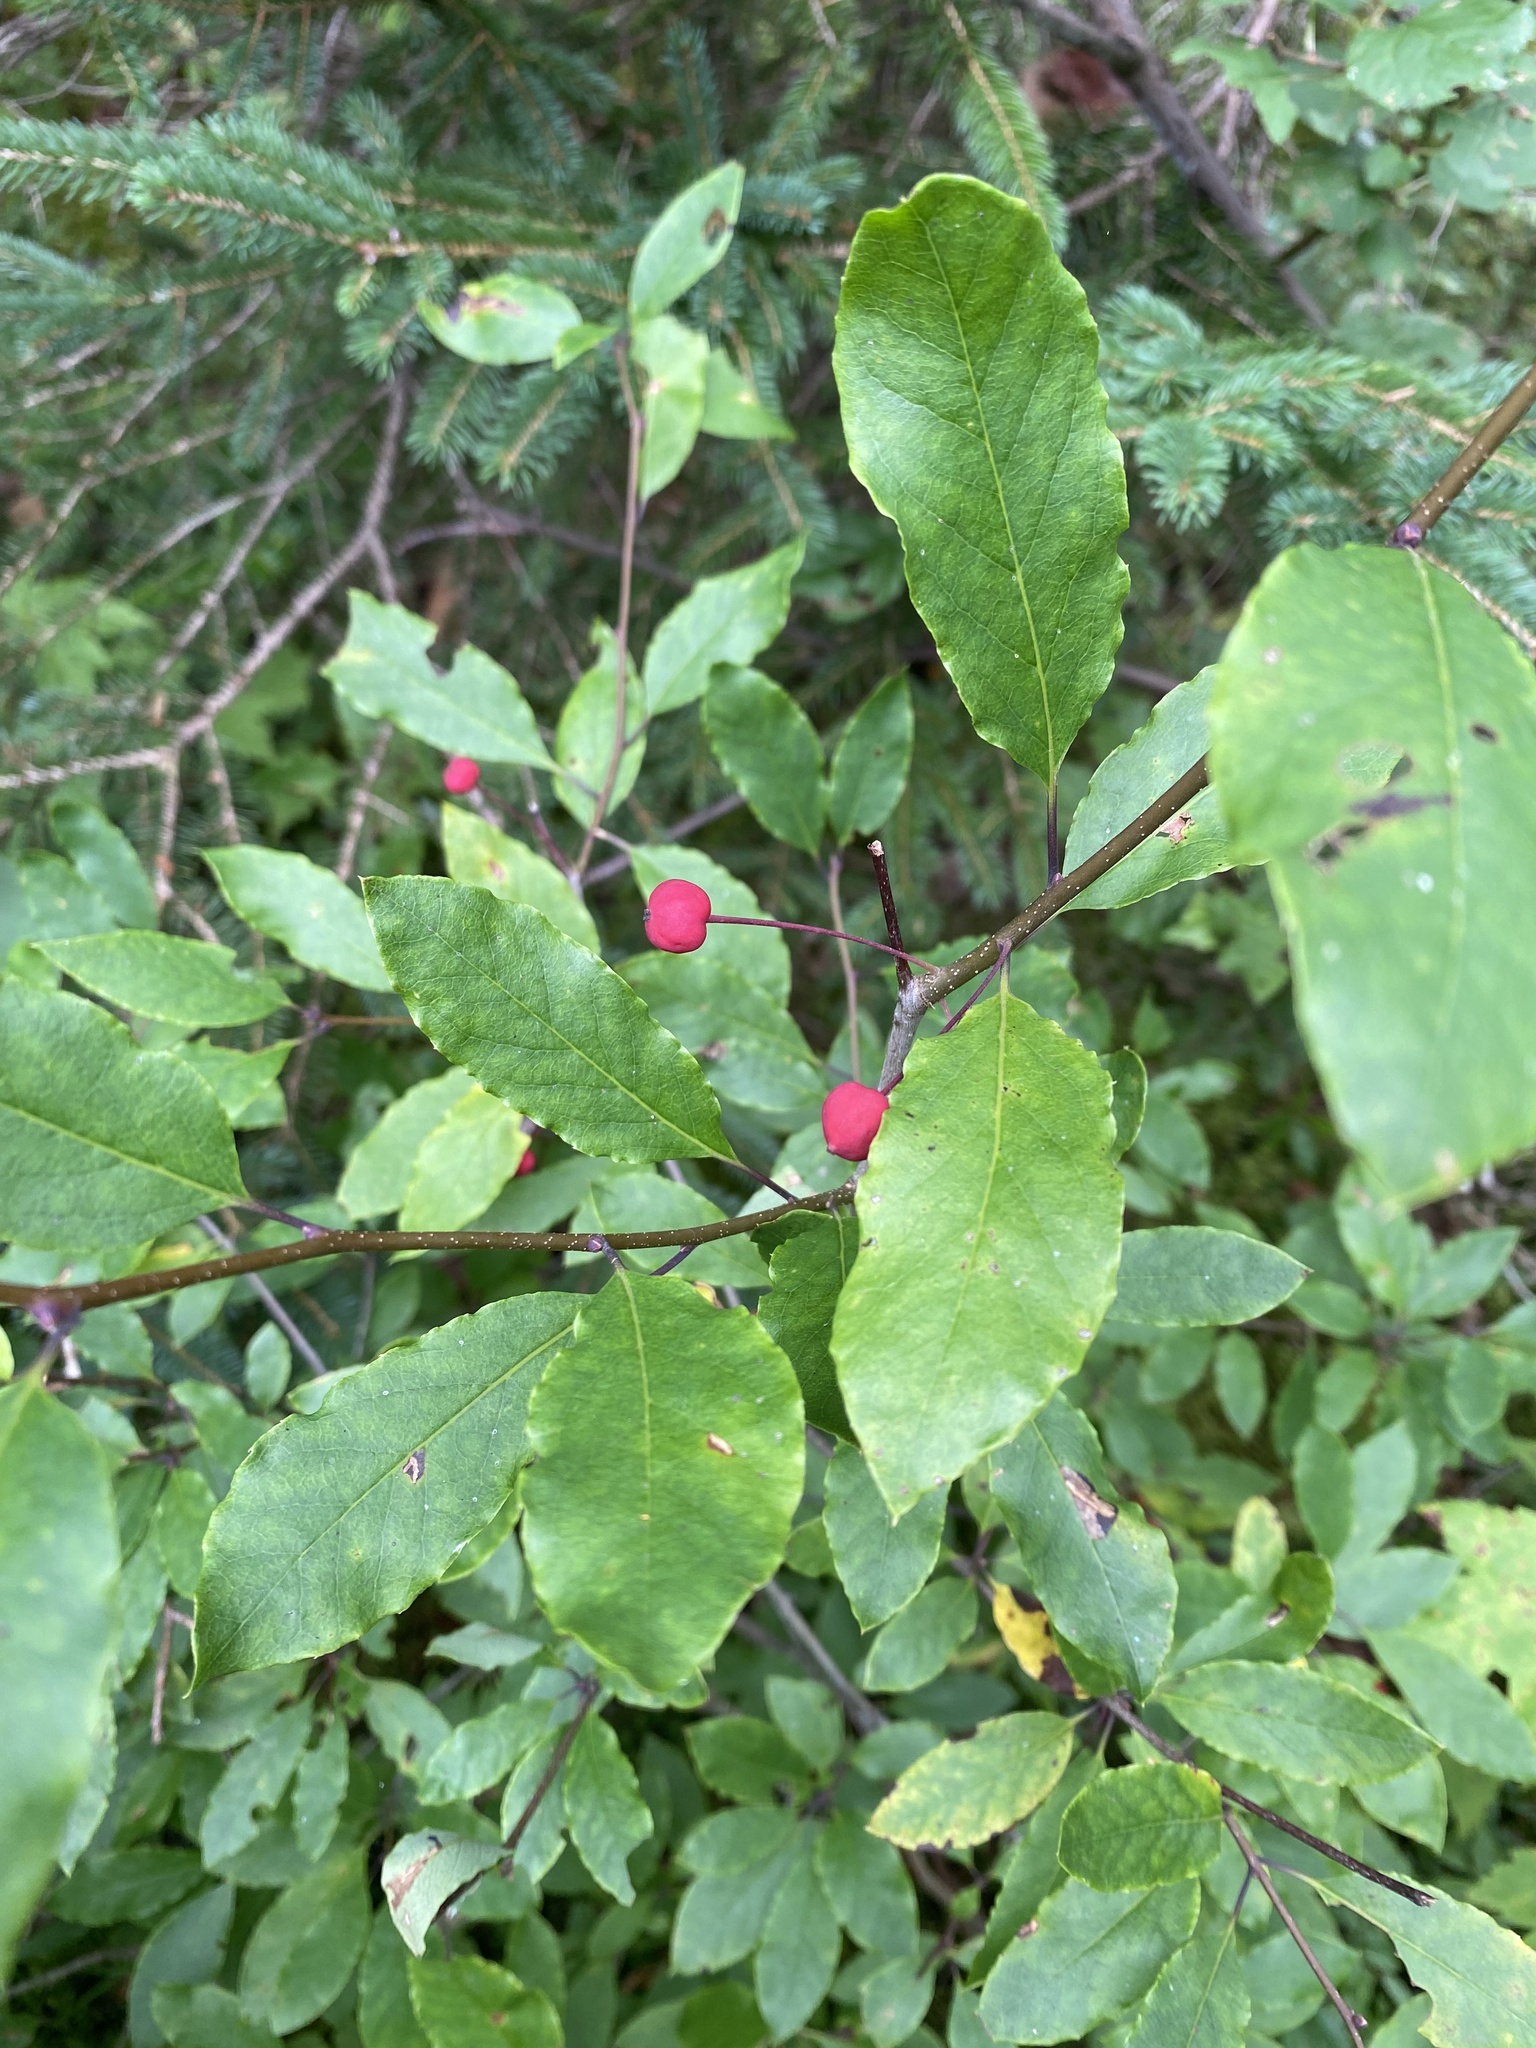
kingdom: Plantae
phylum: Tracheophyta
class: Magnoliopsida
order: Aquifoliales
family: Aquifoliaceae
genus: Ilex
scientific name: Ilex mucronata
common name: Catberry
